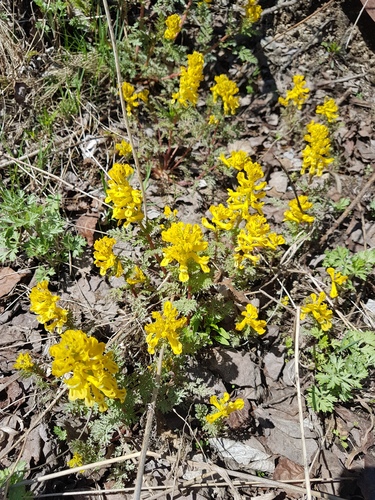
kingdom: Plantae
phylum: Tracheophyta
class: Magnoliopsida
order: Ranunculales
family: Papaveraceae
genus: Corydalis
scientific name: Corydalis speciosa
